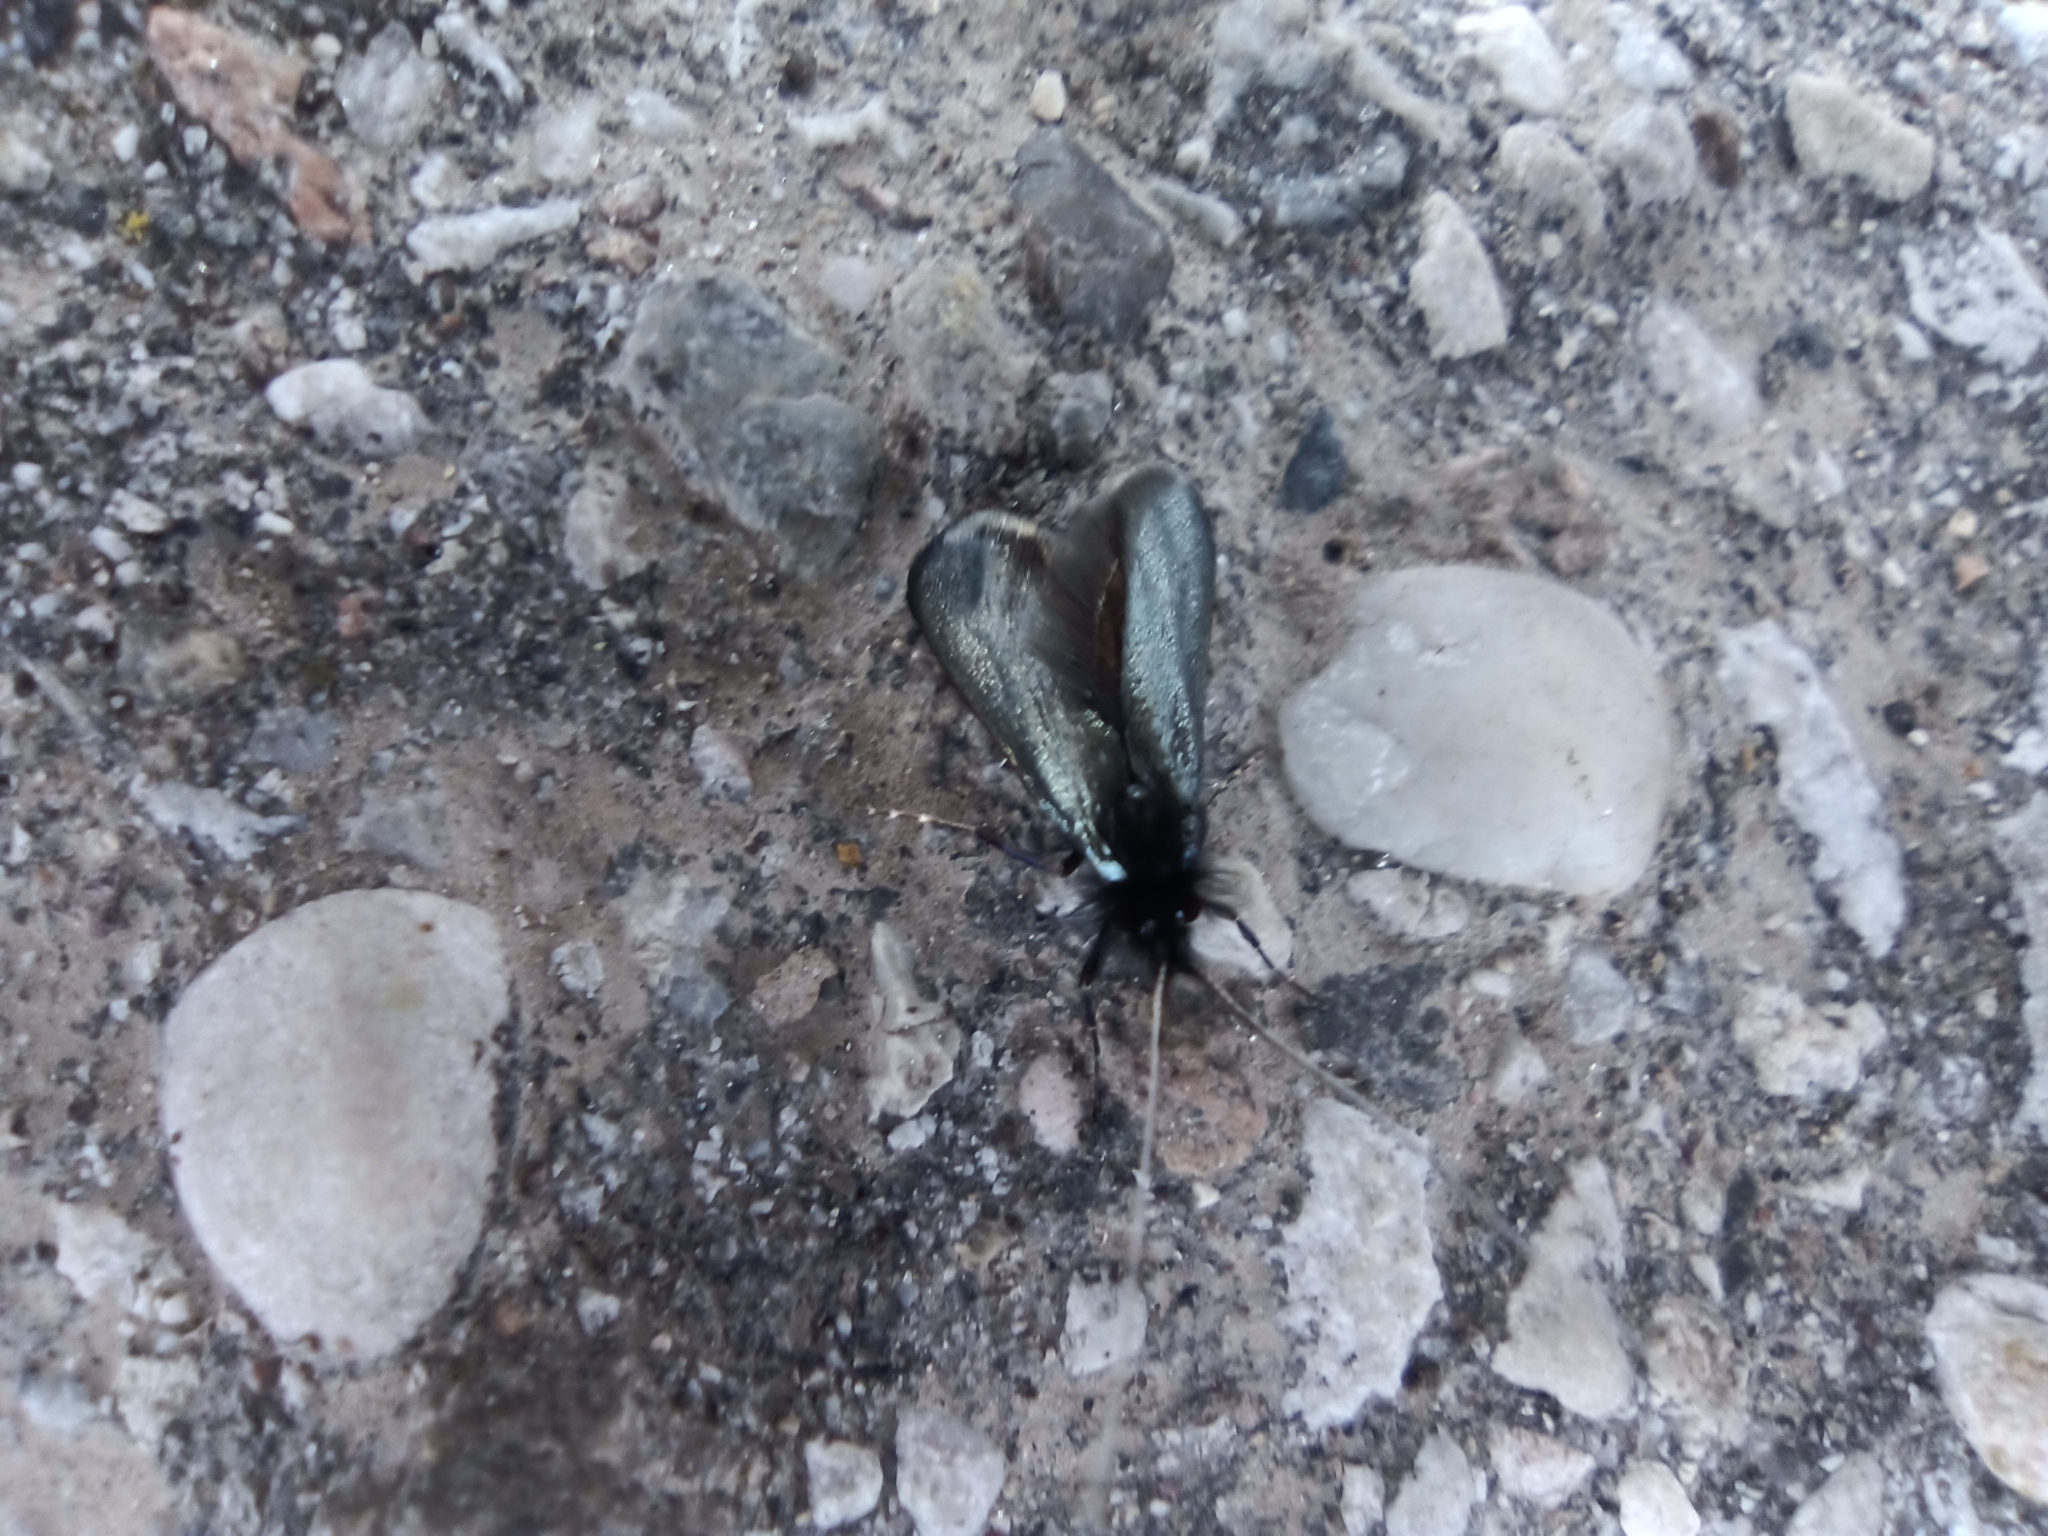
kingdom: Animalia
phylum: Arthropoda
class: Insecta
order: Lepidoptera
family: Adelidae
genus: Adela
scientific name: Adela viridella
